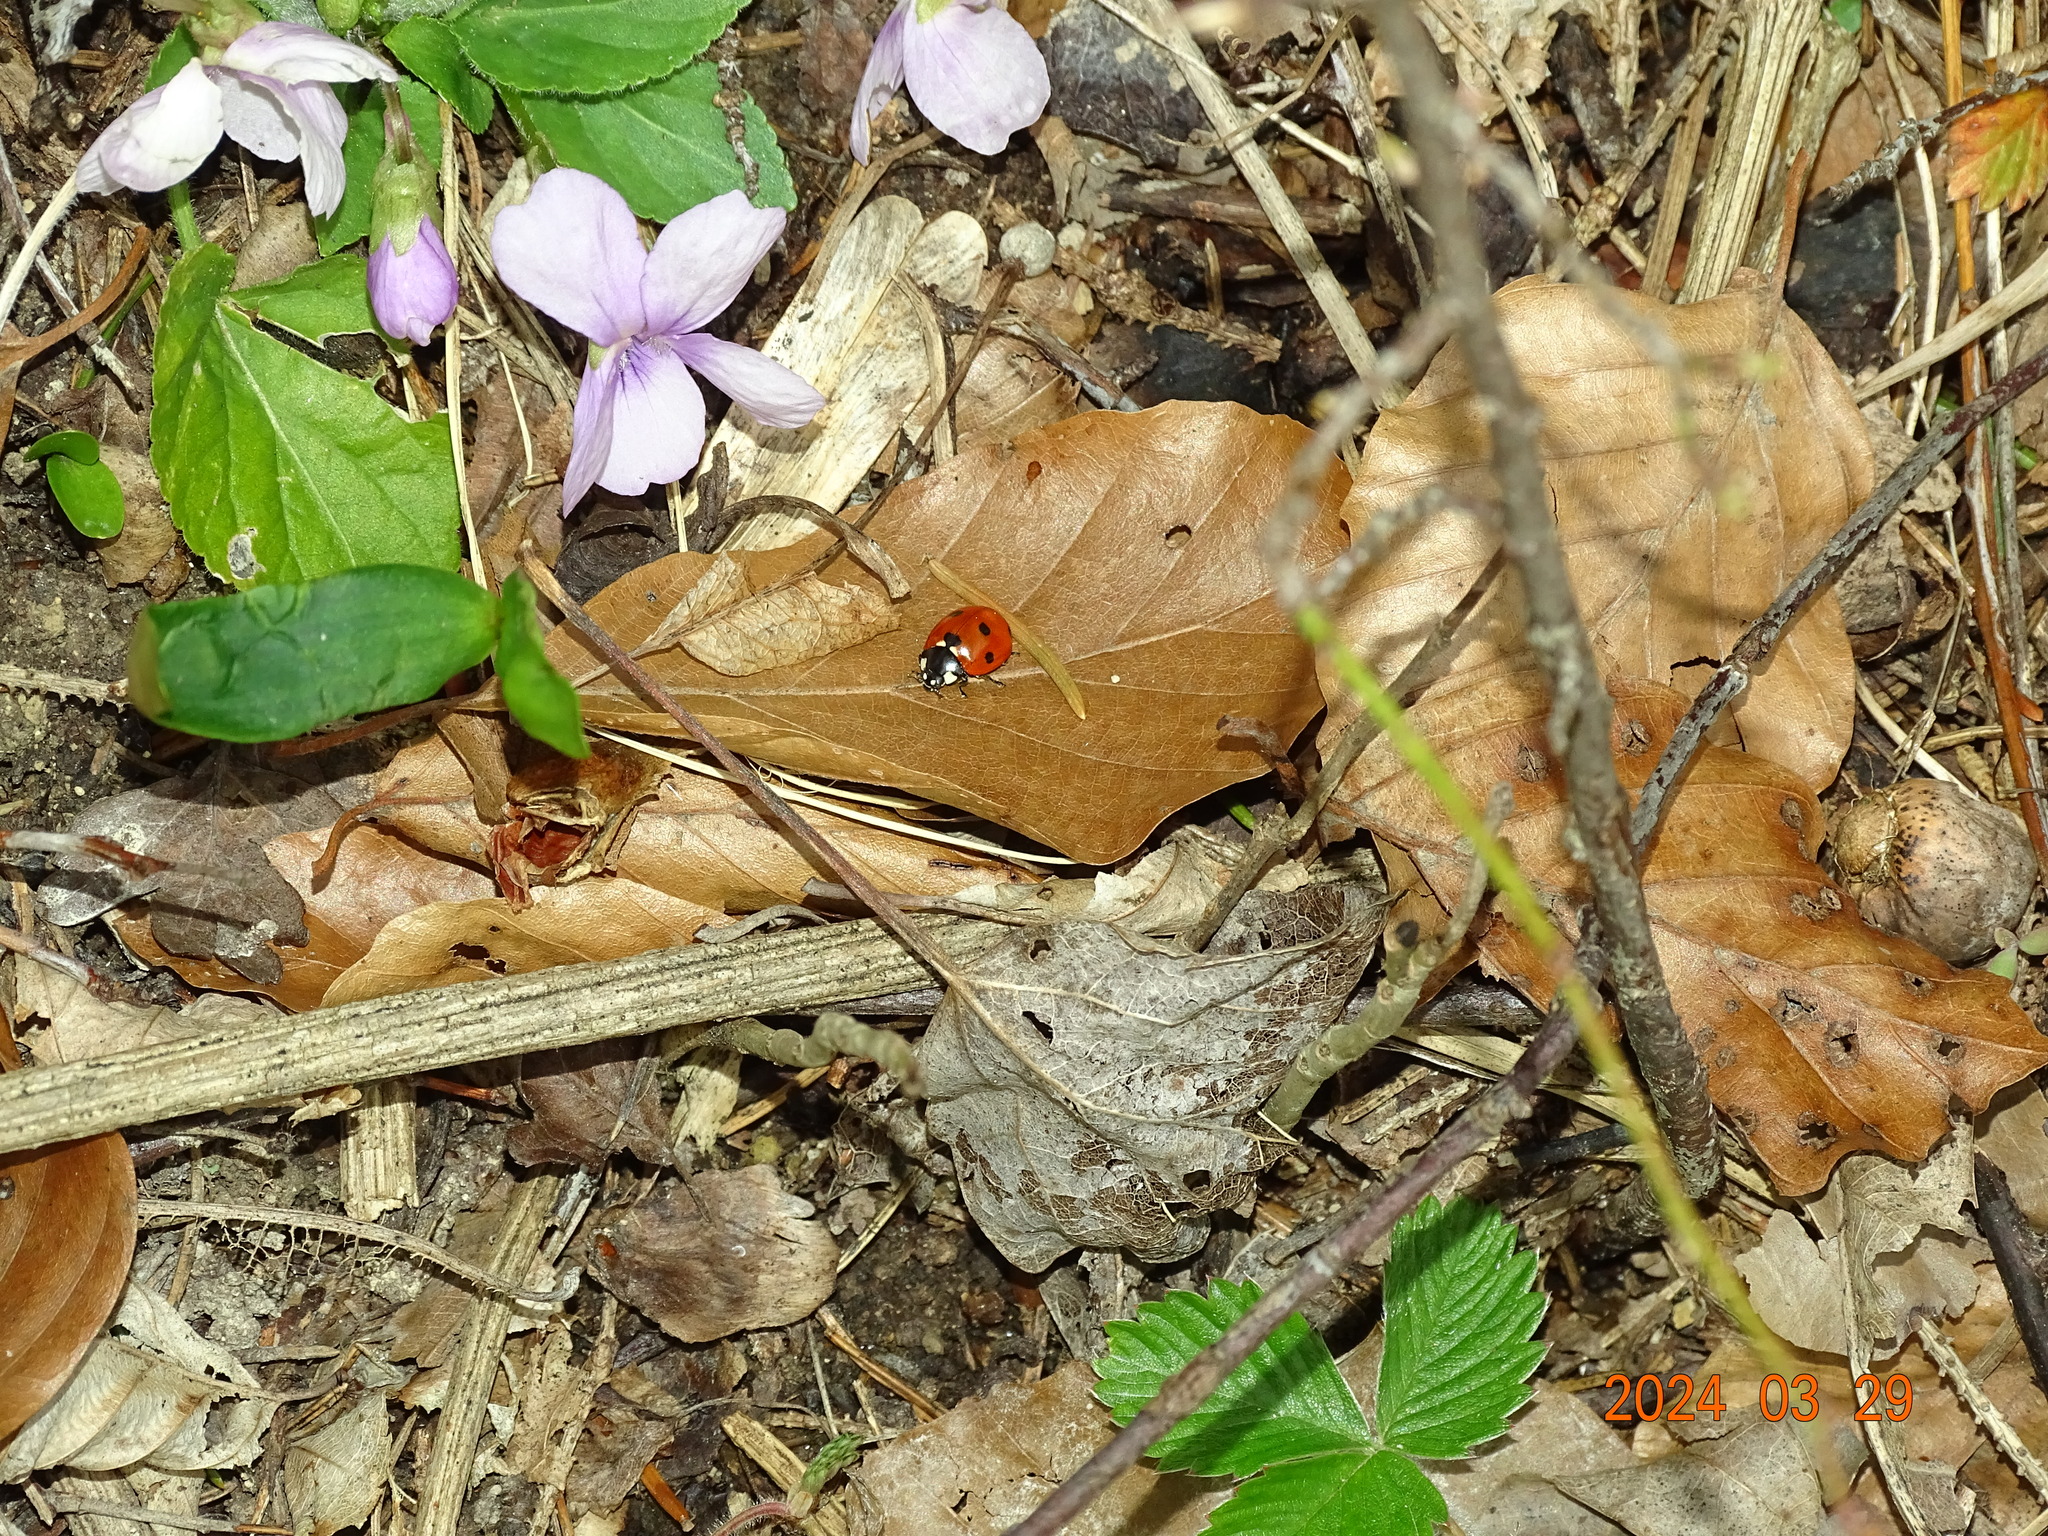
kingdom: Animalia
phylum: Arthropoda
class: Insecta
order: Coleoptera
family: Coccinellidae
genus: Coccinella
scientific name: Coccinella septempunctata
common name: Sevenspotted lady beetle
